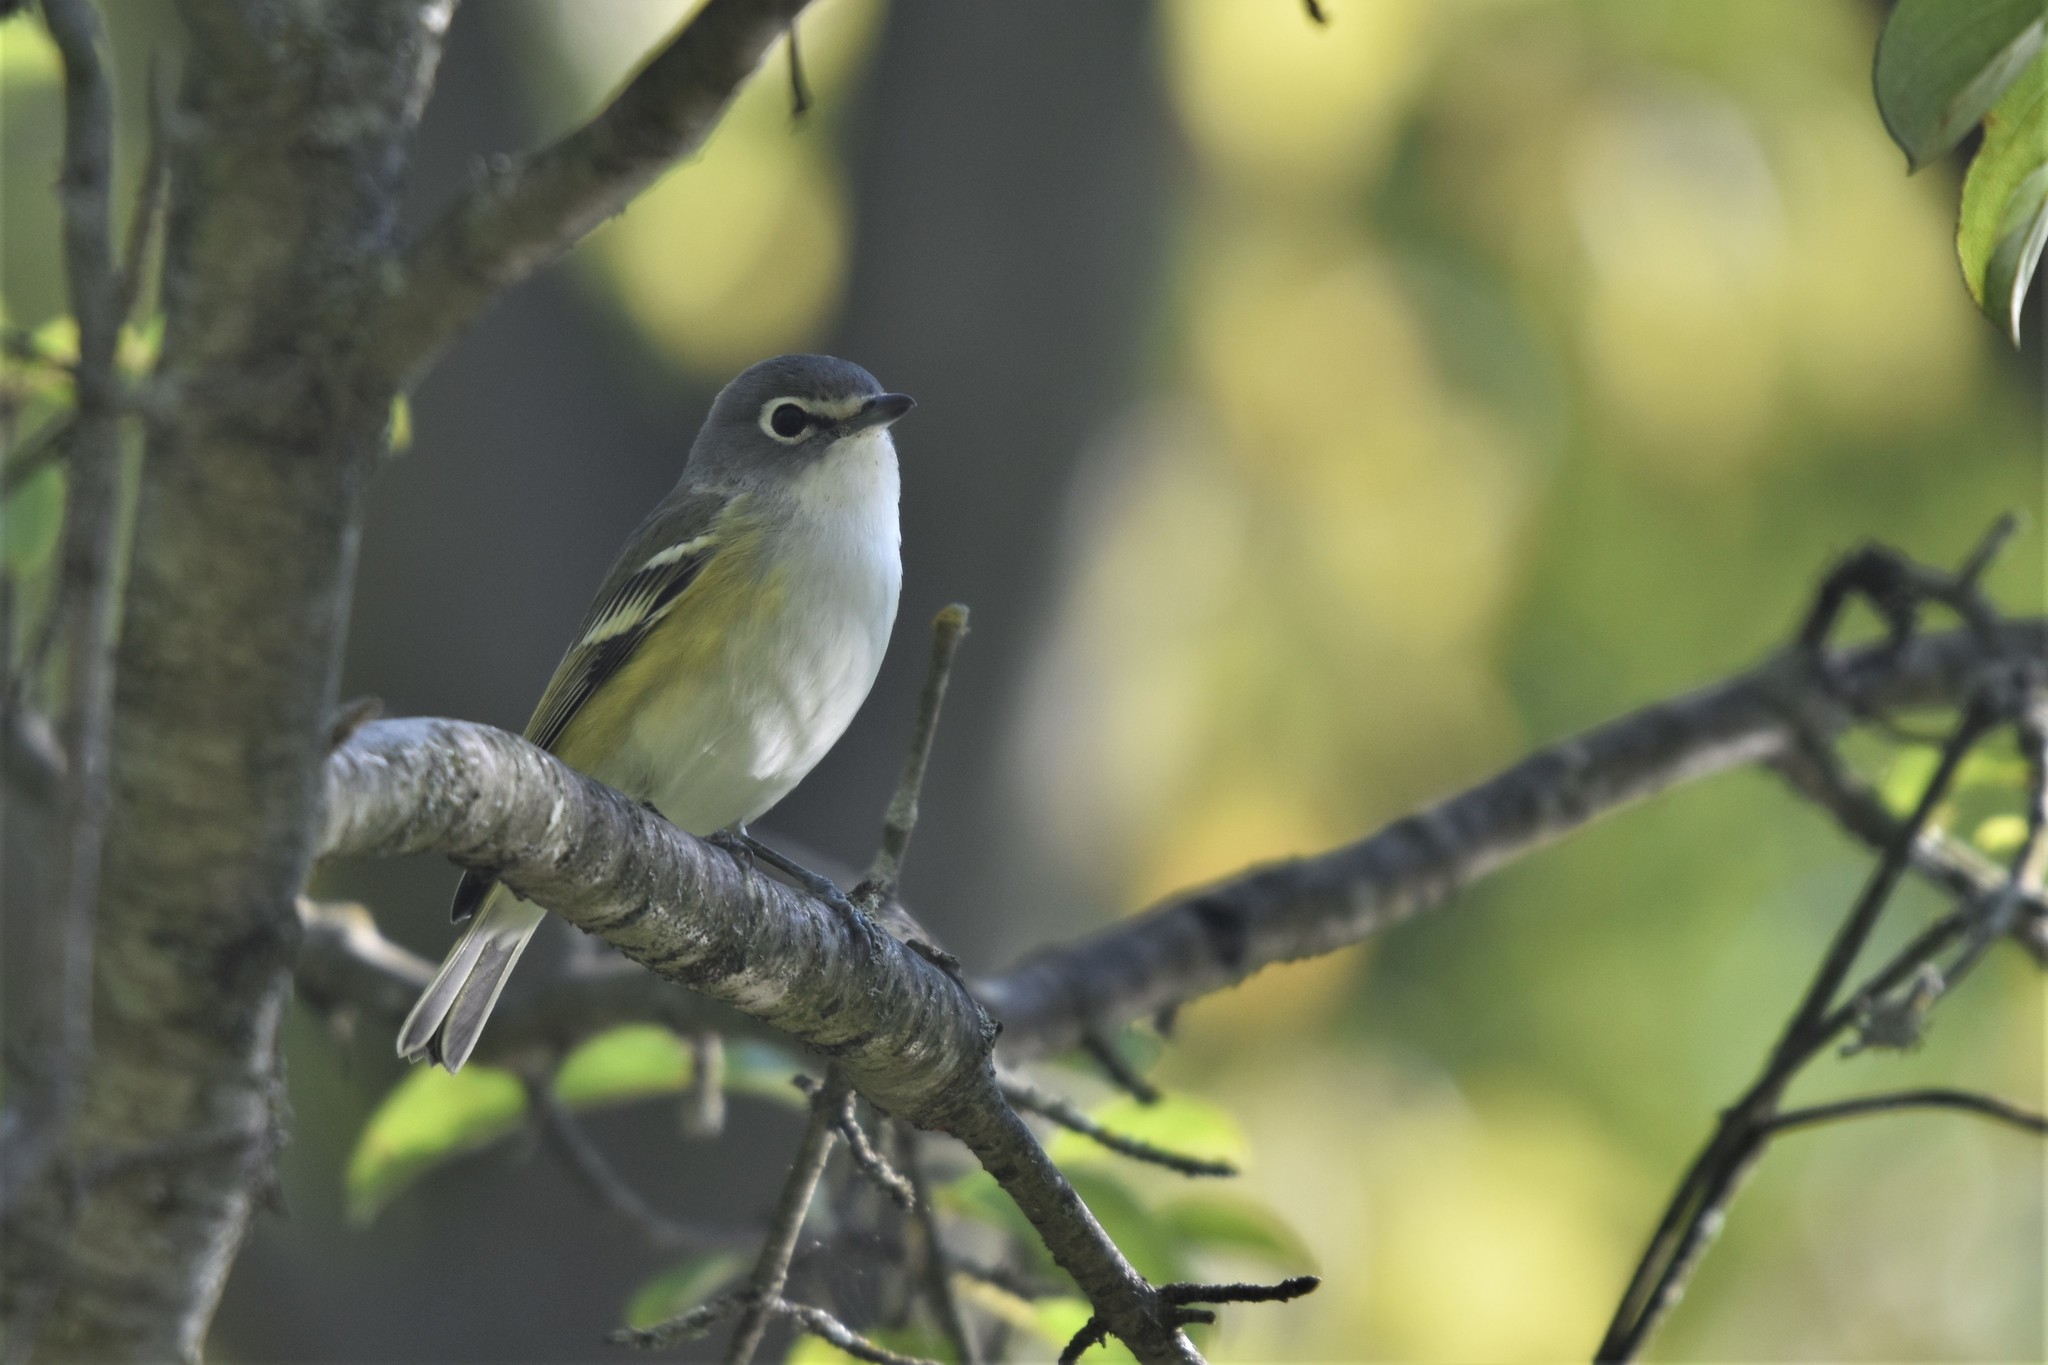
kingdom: Animalia
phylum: Chordata
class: Aves
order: Passeriformes
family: Vireonidae
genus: Vireo
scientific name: Vireo solitarius
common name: Blue-headed vireo
